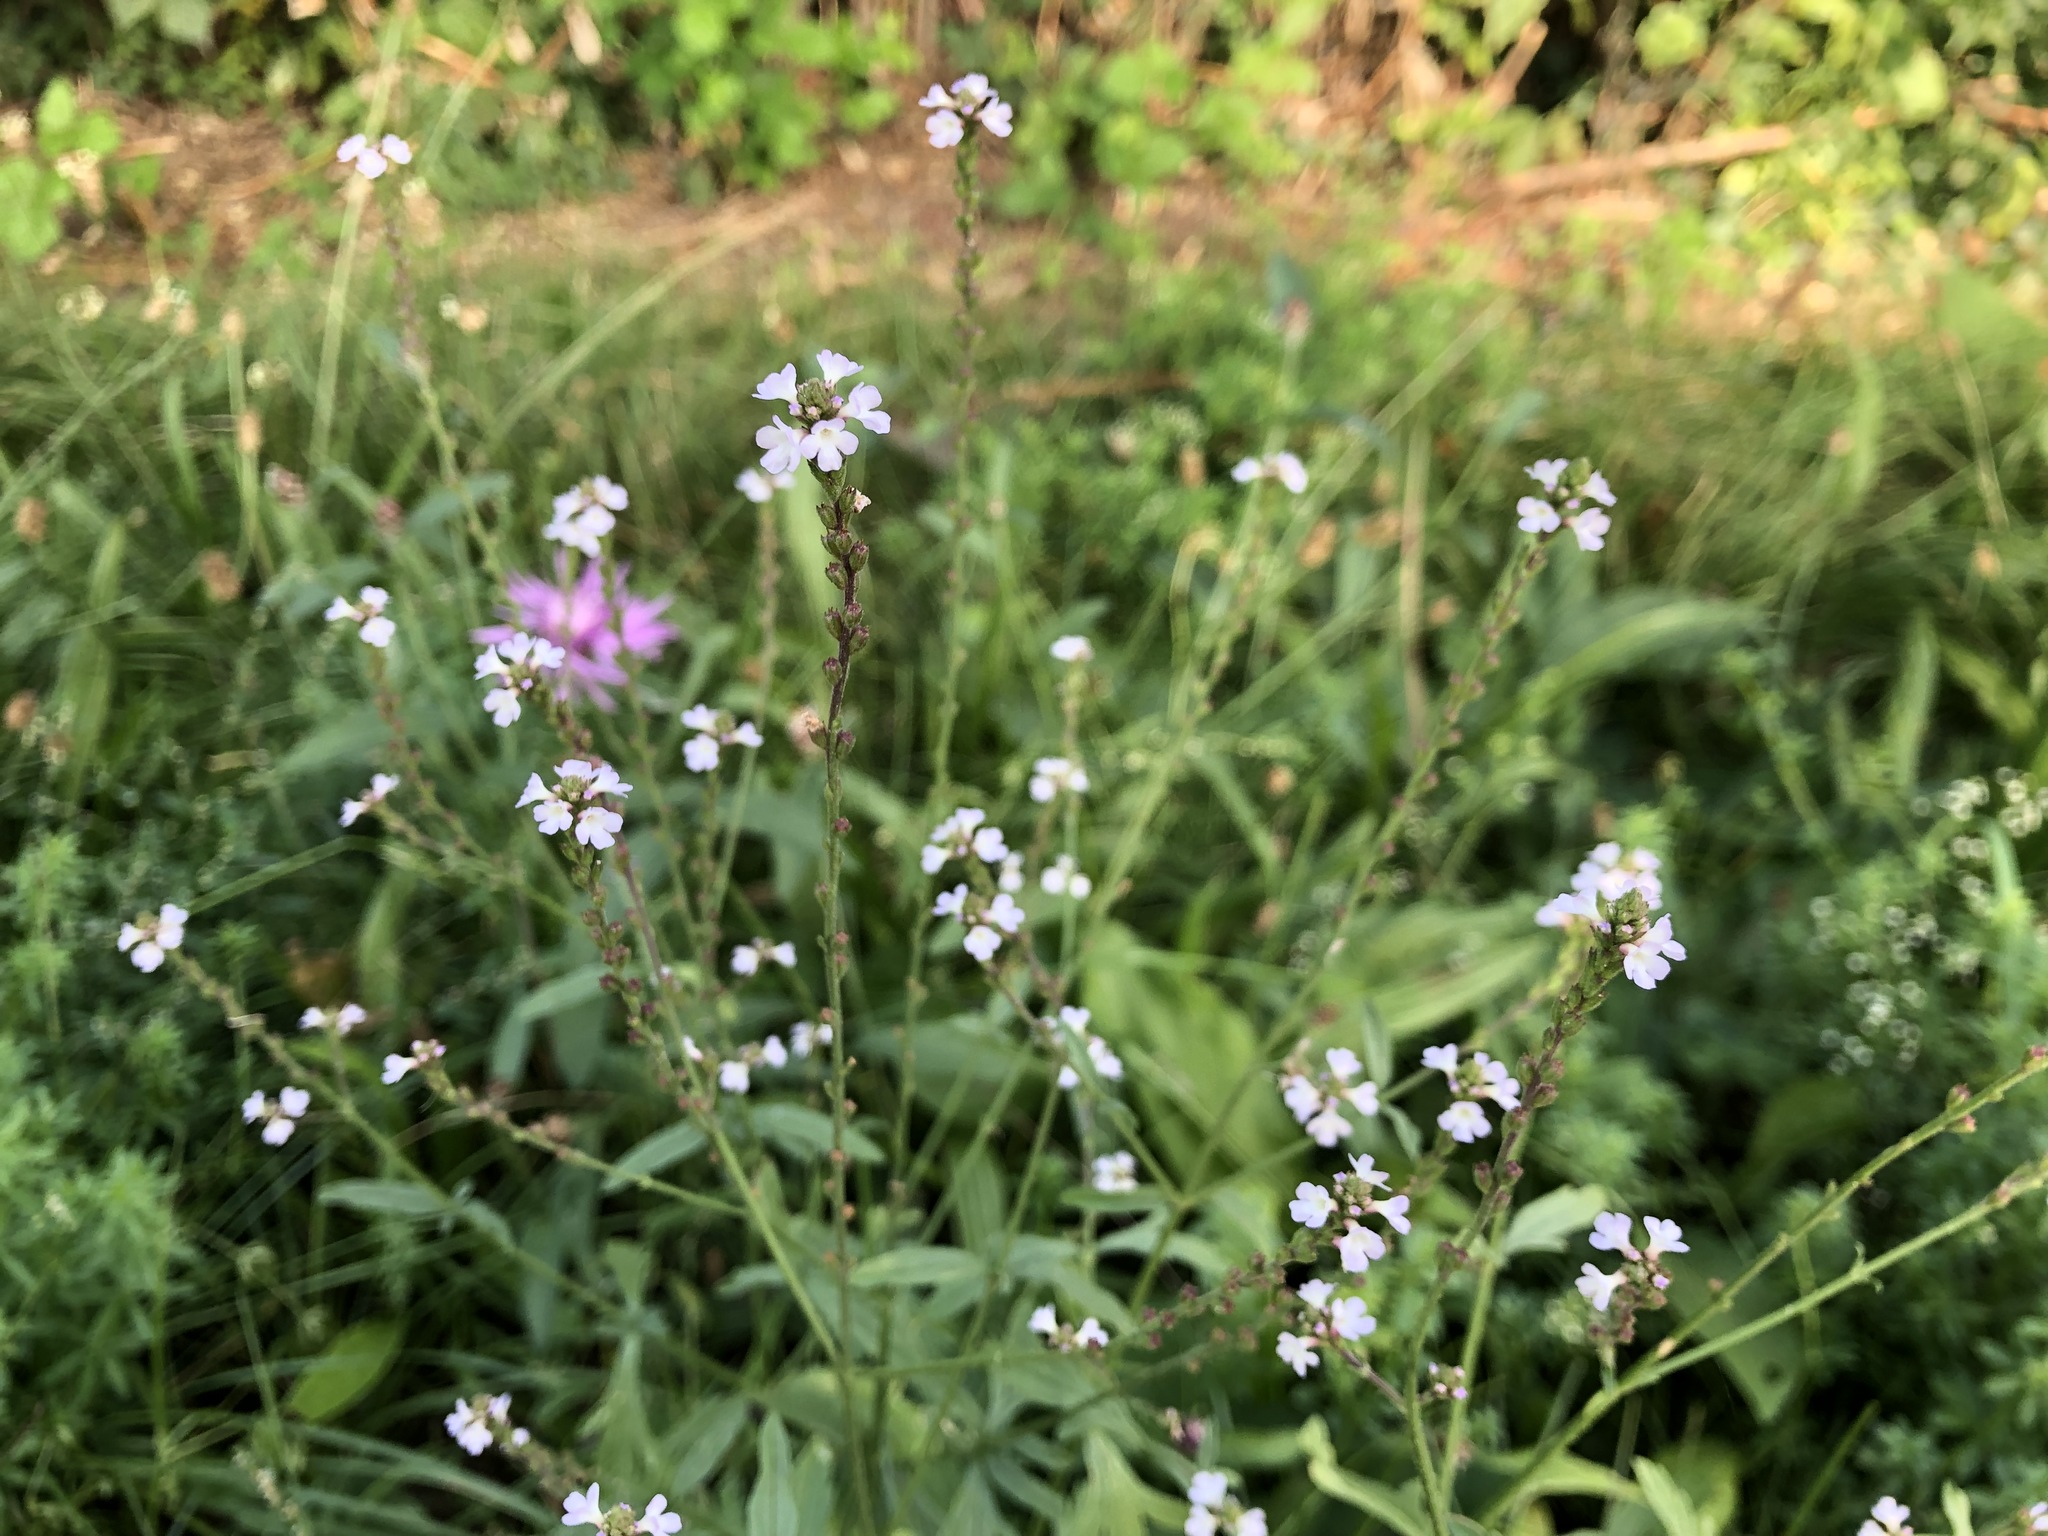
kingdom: Plantae
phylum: Tracheophyta
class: Magnoliopsida
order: Lamiales
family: Verbenaceae
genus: Verbena
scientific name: Verbena officinalis
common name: Vervain
